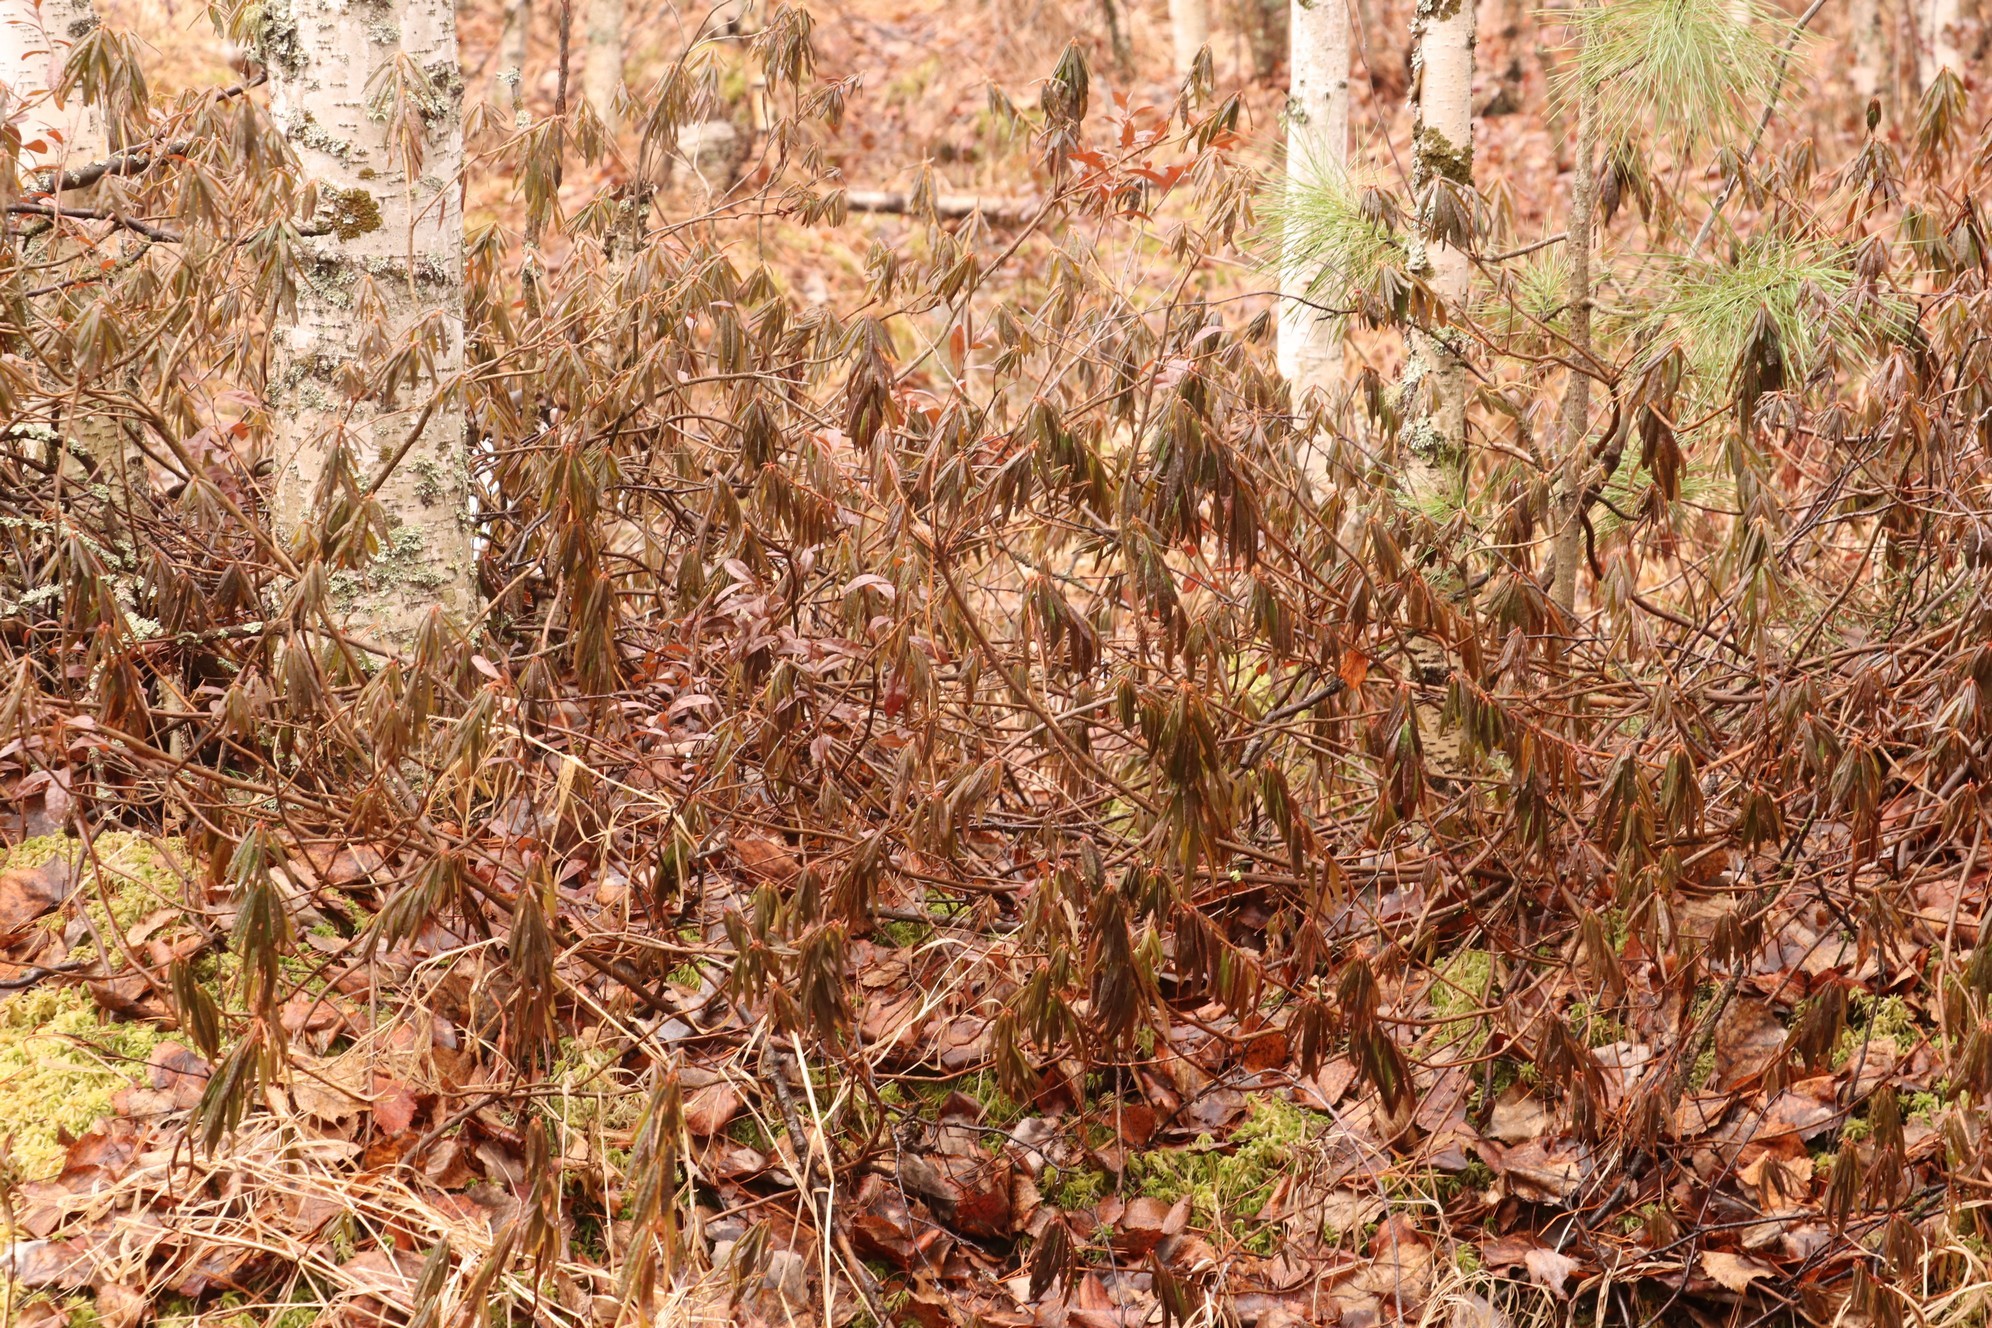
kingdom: Plantae
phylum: Tracheophyta
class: Magnoliopsida
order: Ericales
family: Ericaceae
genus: Rhododendron
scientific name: Rhododendron tomentosum
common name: Marsh labrador tea
